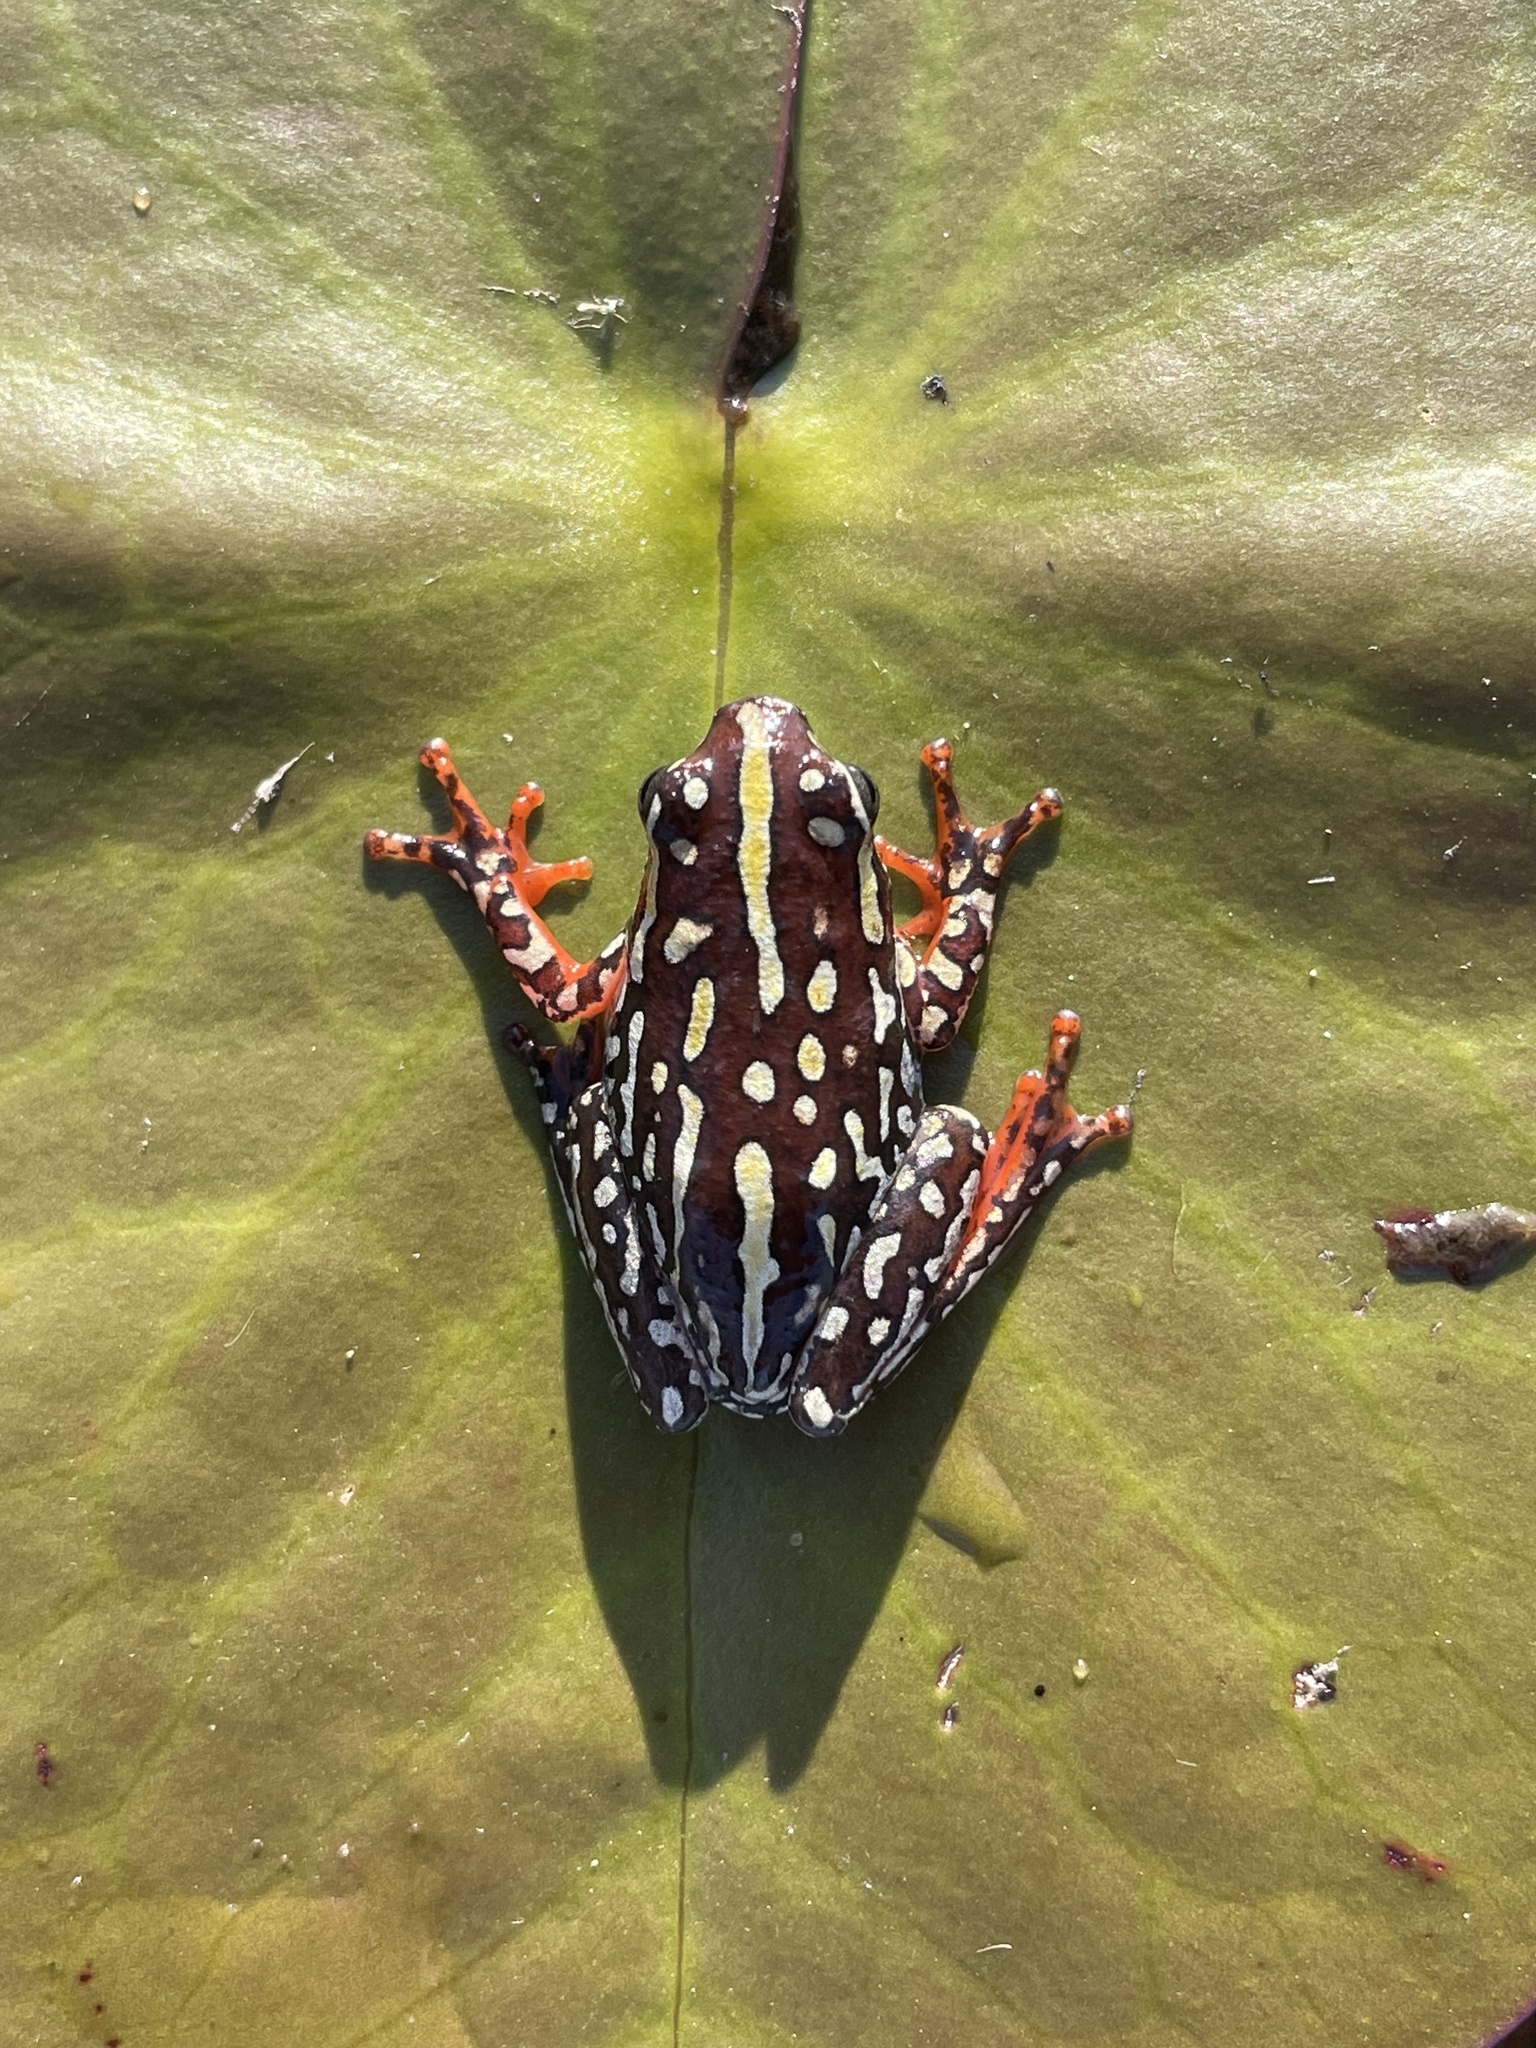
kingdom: Animalia
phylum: Chordata
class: Amphibia
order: Anura
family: Hyperoliidae
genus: Hyperolius
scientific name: Hyperolius parallelus
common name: Angolan reed frog
